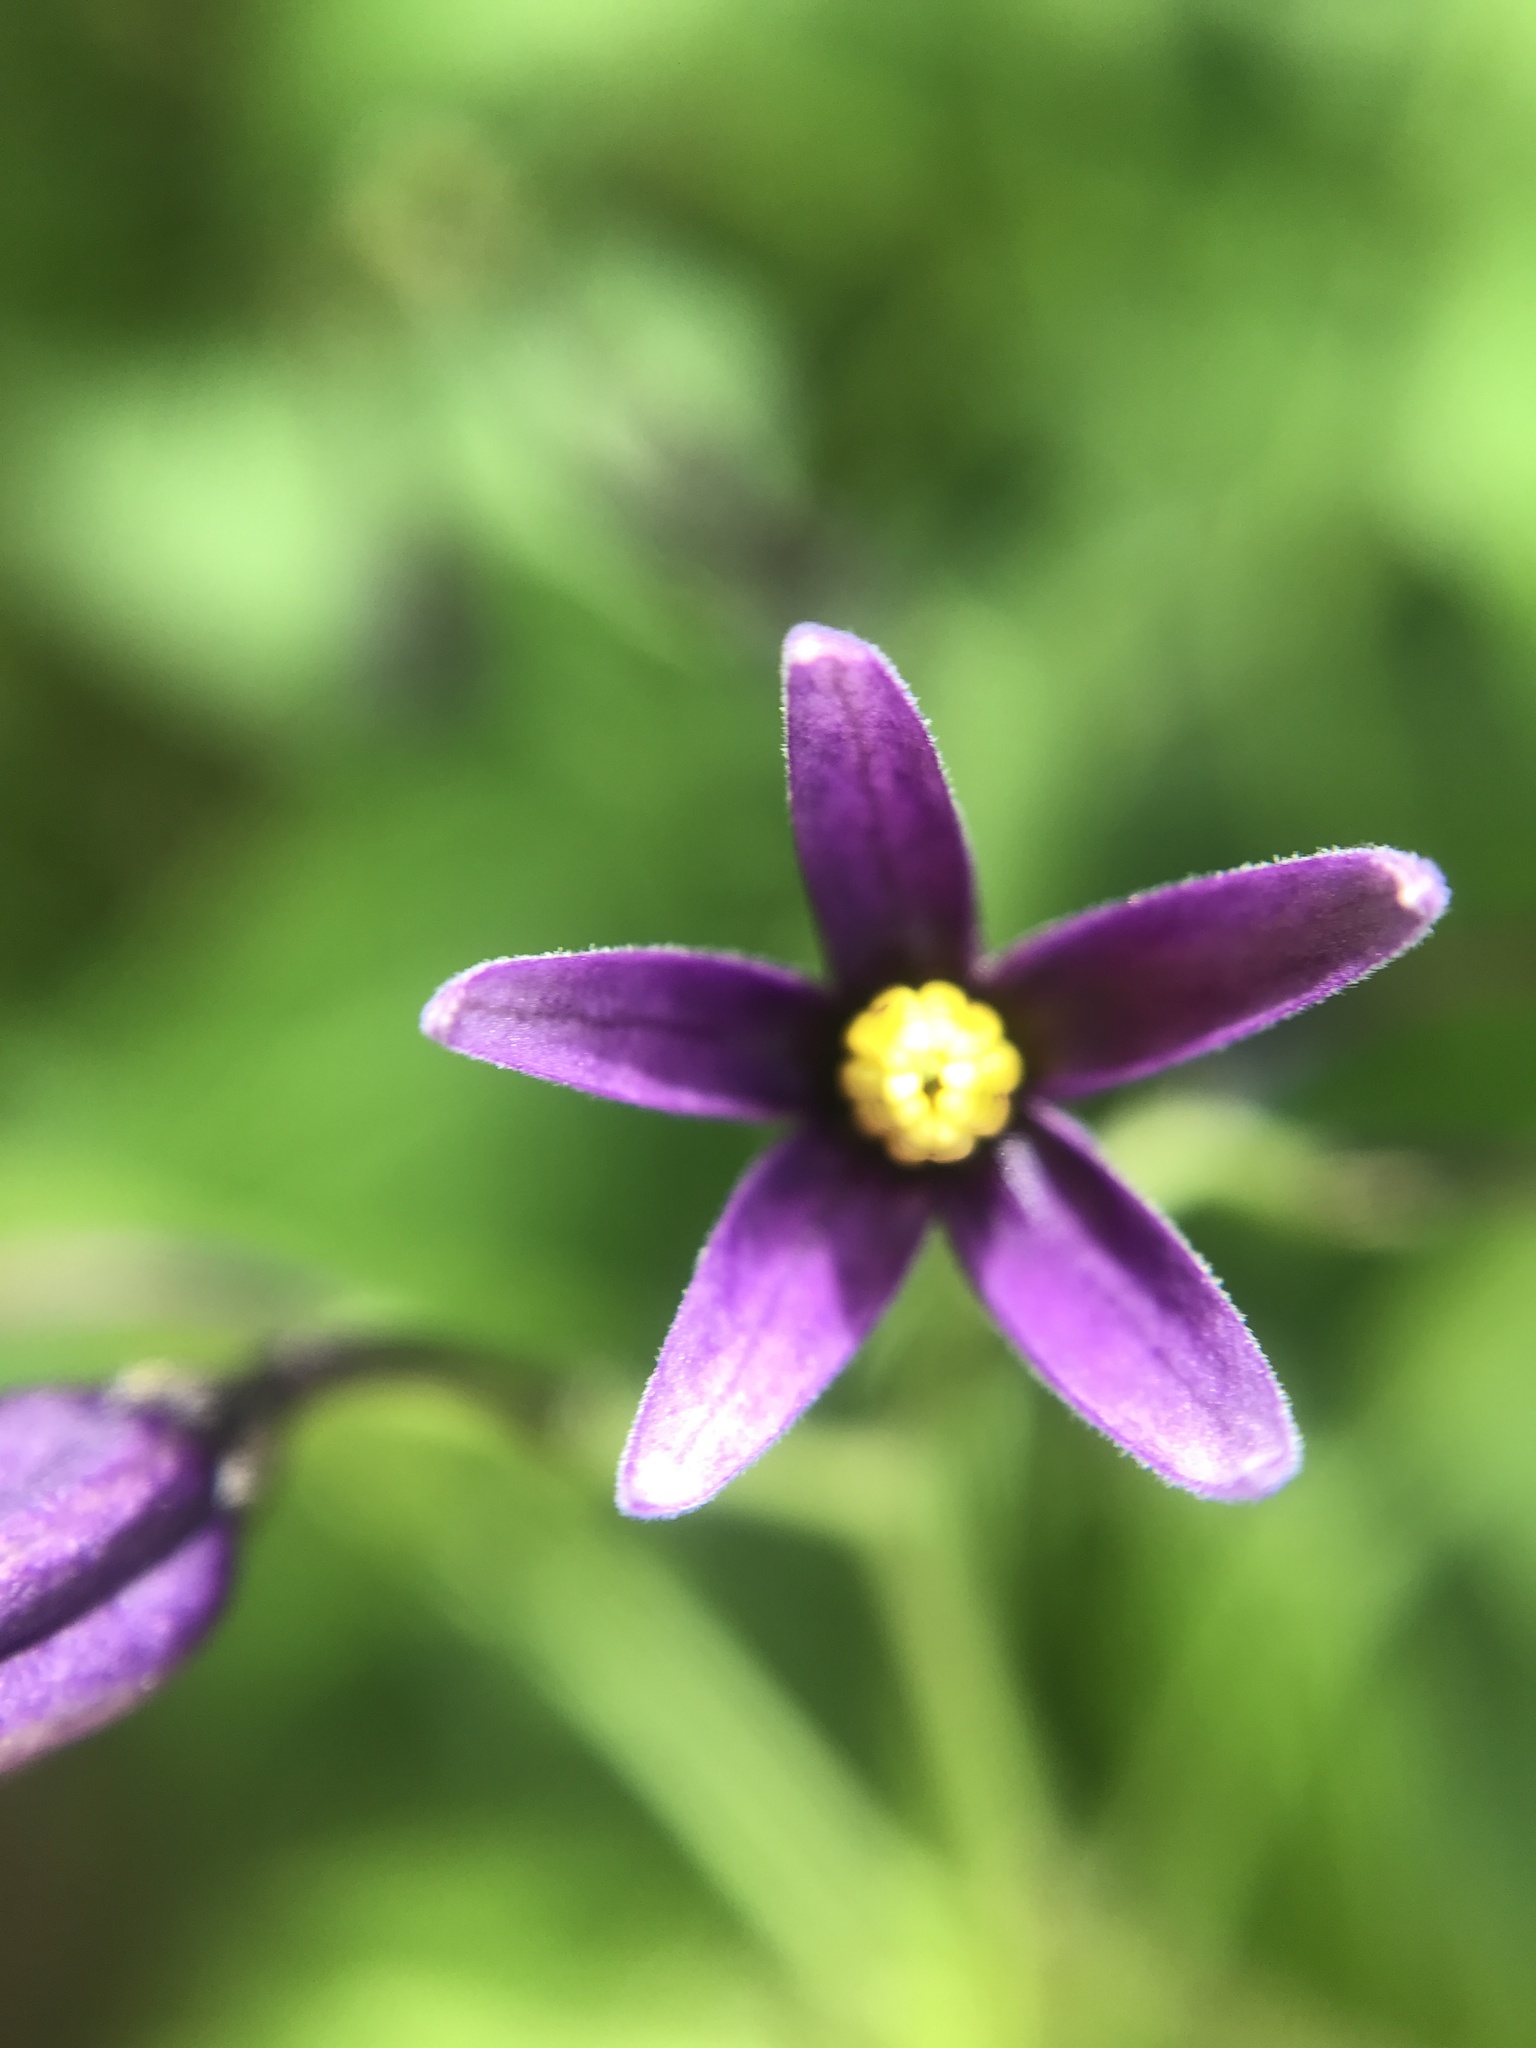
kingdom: Plantae
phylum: Tracheophyta
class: Magnoliopsida
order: Solanales
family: Solanaceae
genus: Solanum
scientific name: Solanum dulcamara
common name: Climbing nightshade
